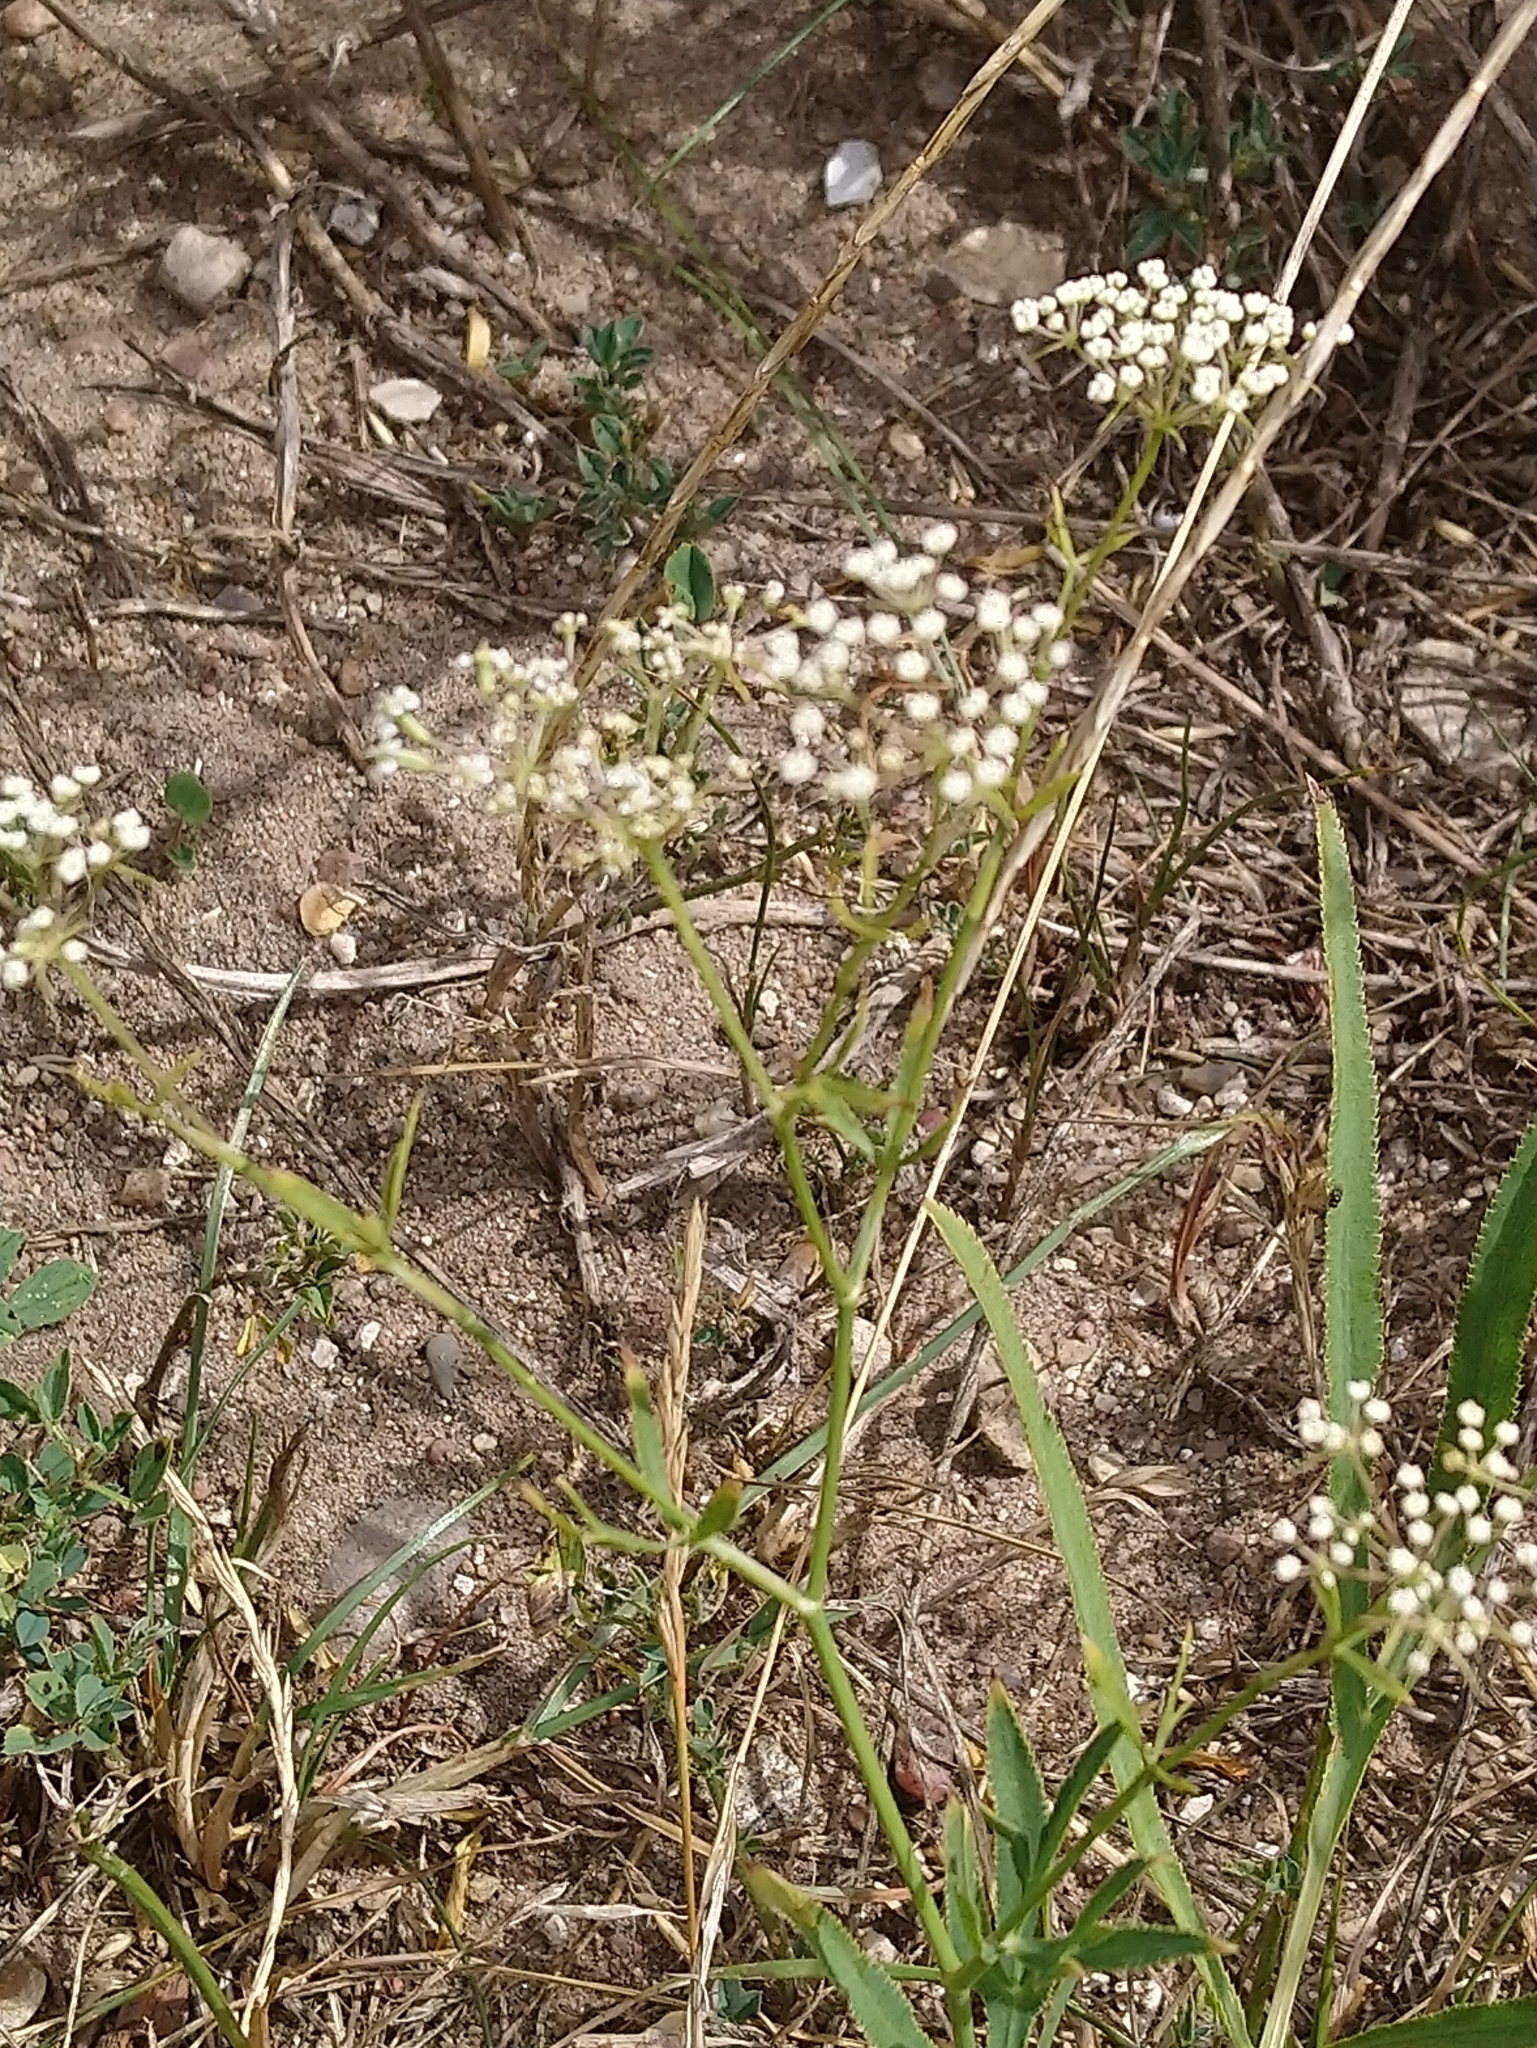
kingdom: Plantae
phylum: Tracheophyta
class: Magnoliopsida
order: Apiales
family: Apiaceae
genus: Falcaria
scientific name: Falcaria vulgaris
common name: Longleaf
